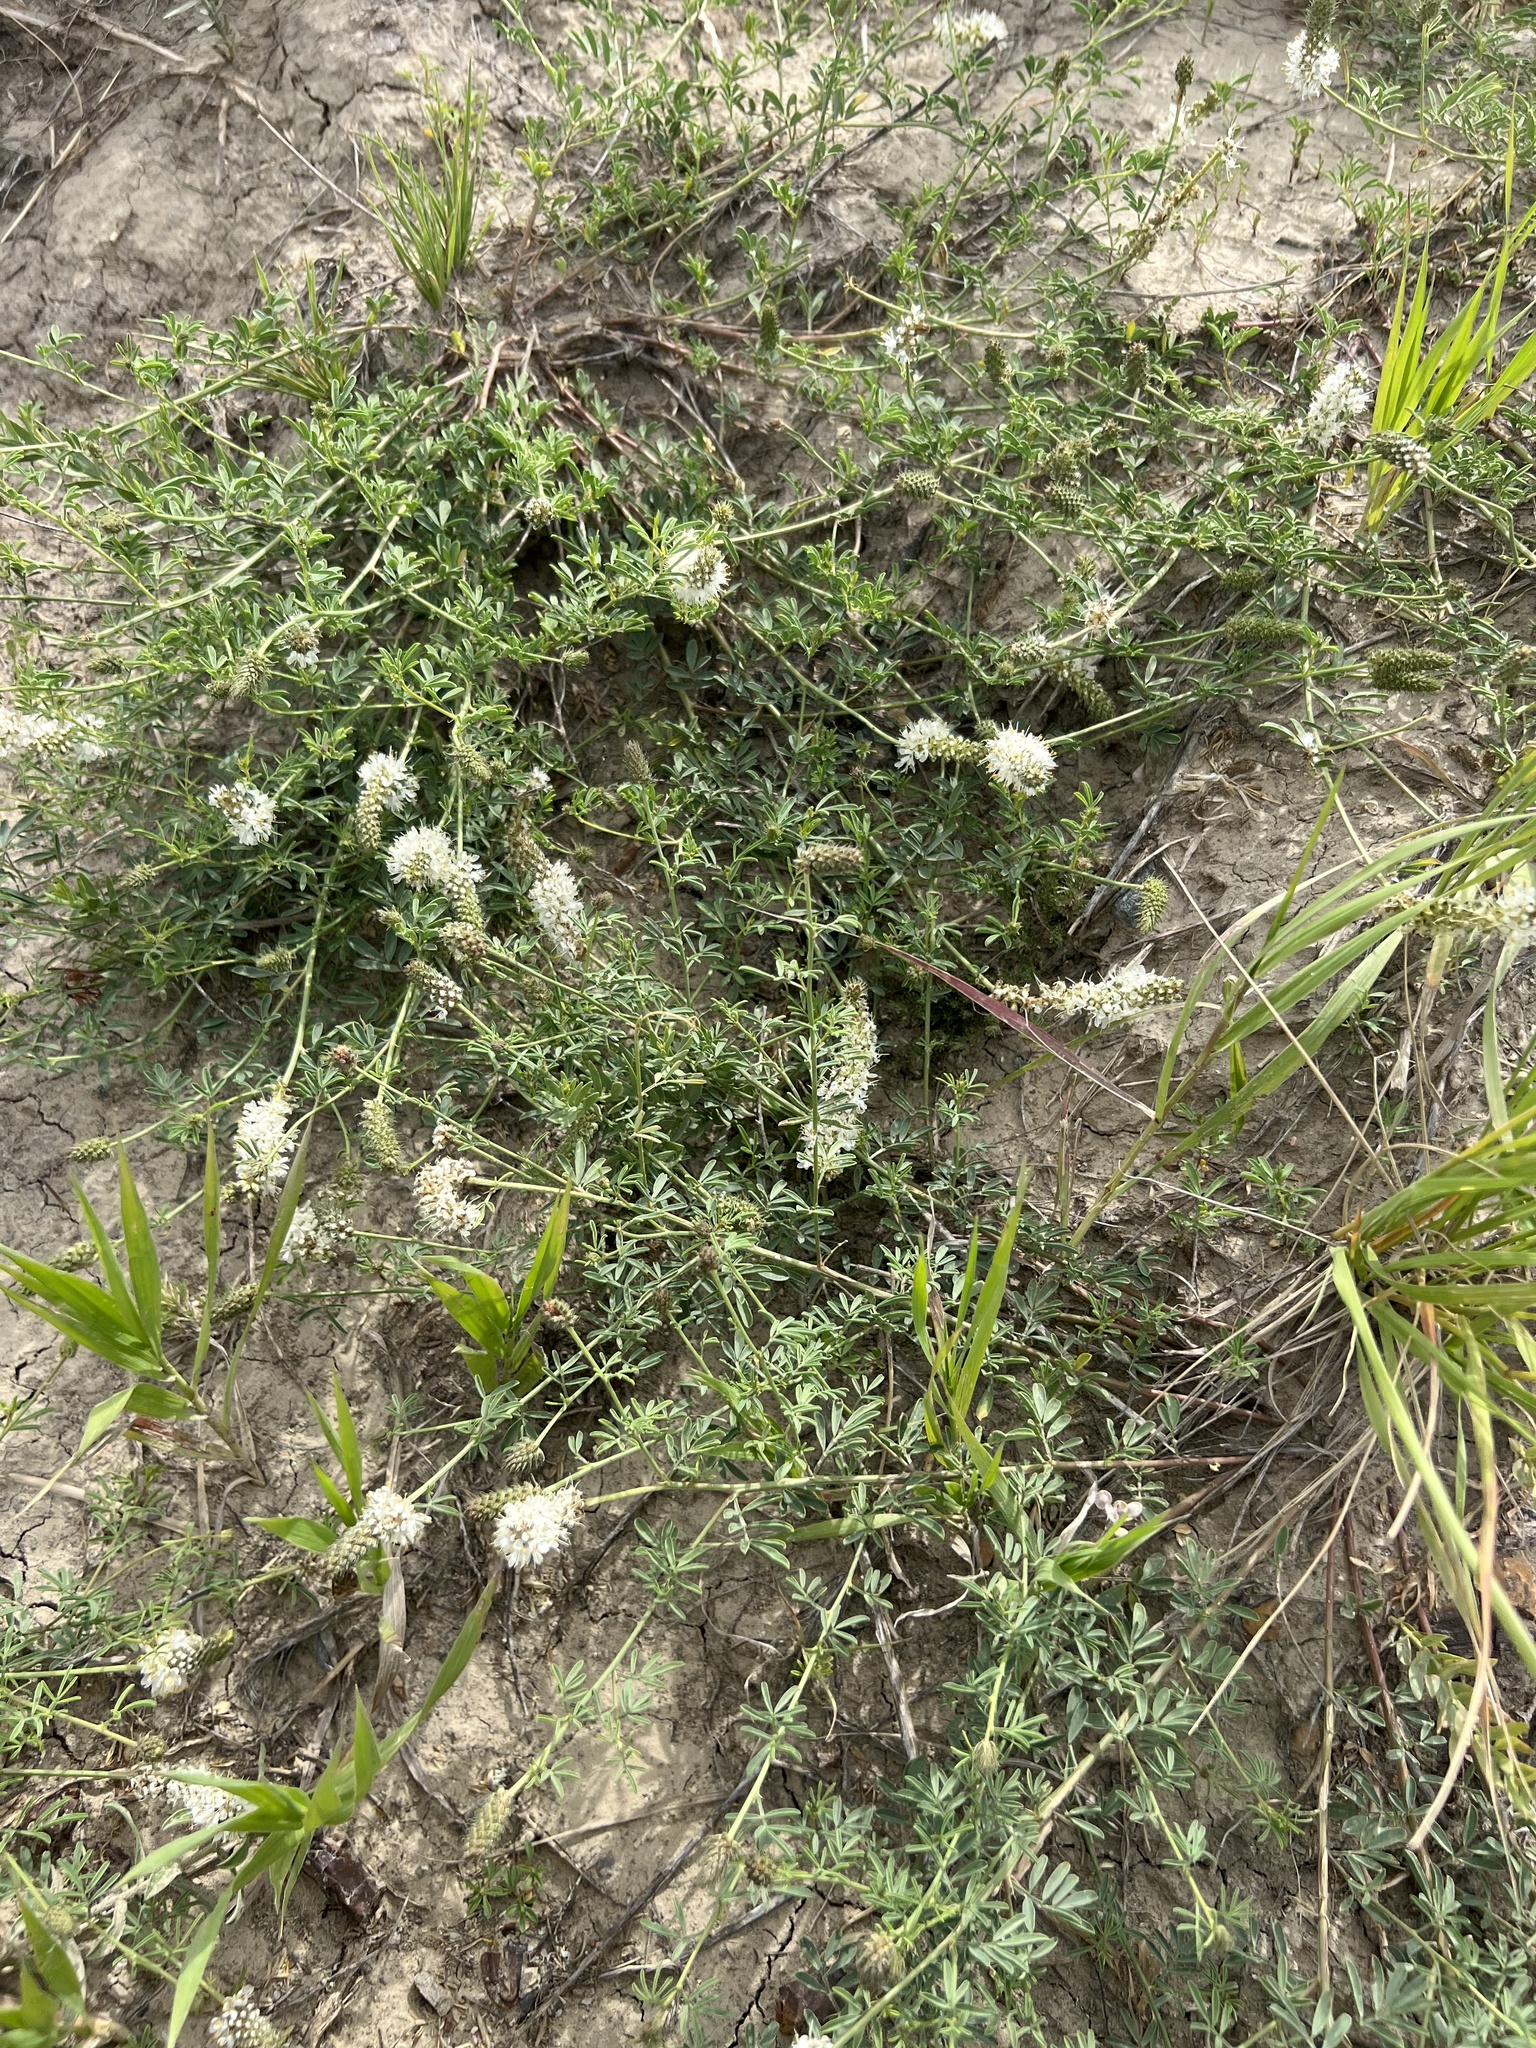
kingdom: Plantae
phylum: Tracheophyta
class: Magnoliopsida
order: Fabales
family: Fabaceae
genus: Dalea
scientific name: Dalea candida
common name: White prairie-clover
